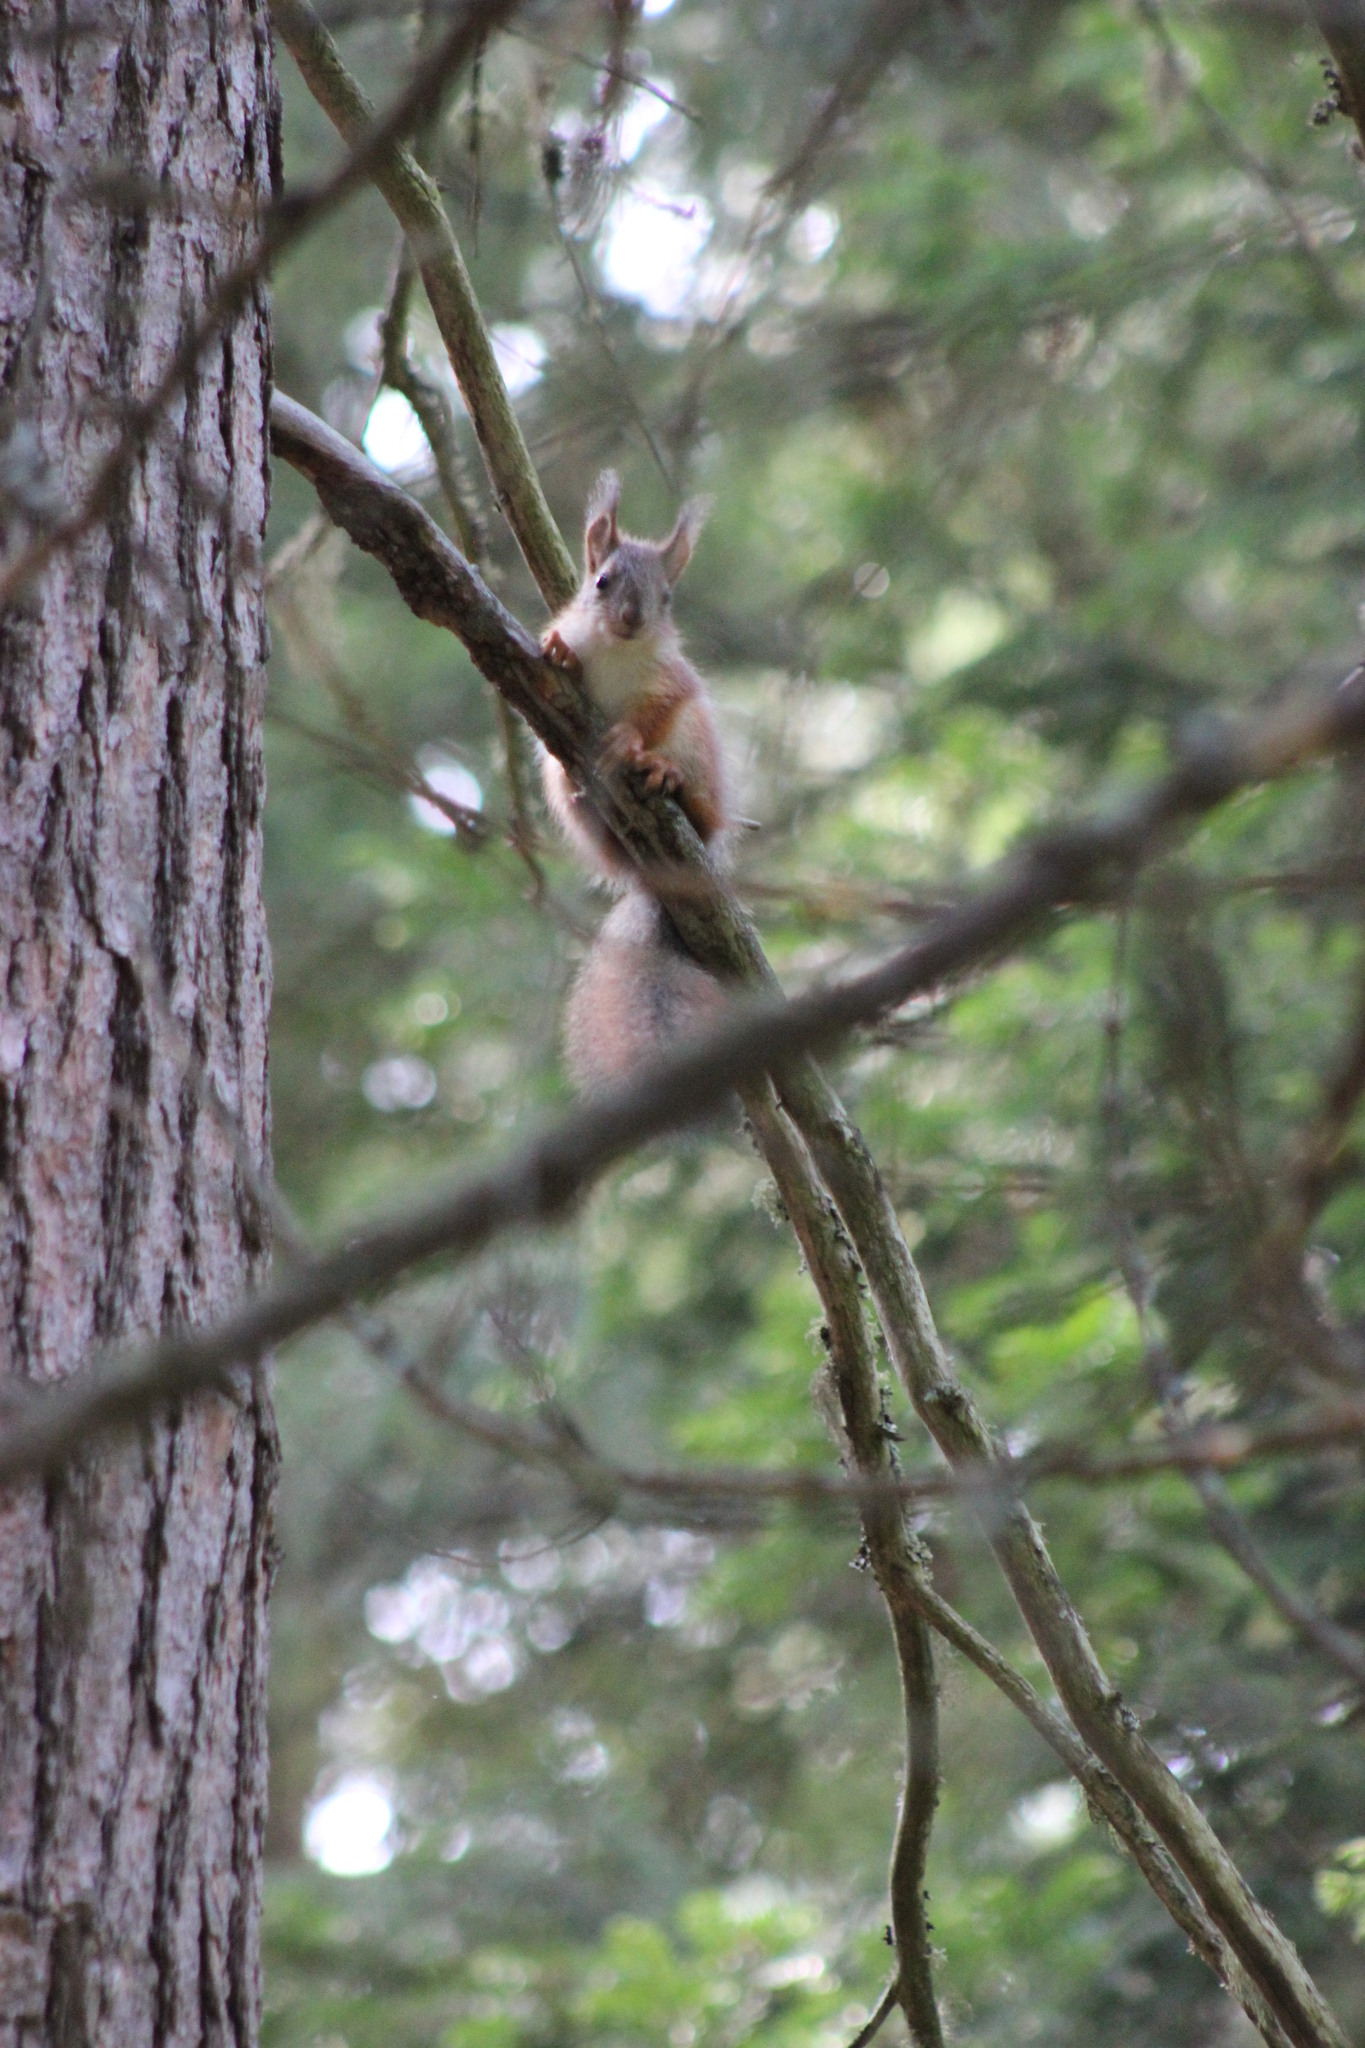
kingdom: Animalia
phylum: Chordata
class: Mammalia
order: Rodentia
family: Sciuridae
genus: Sciurus
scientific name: Sciurus vulgaris
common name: Eurasian red squirrel
